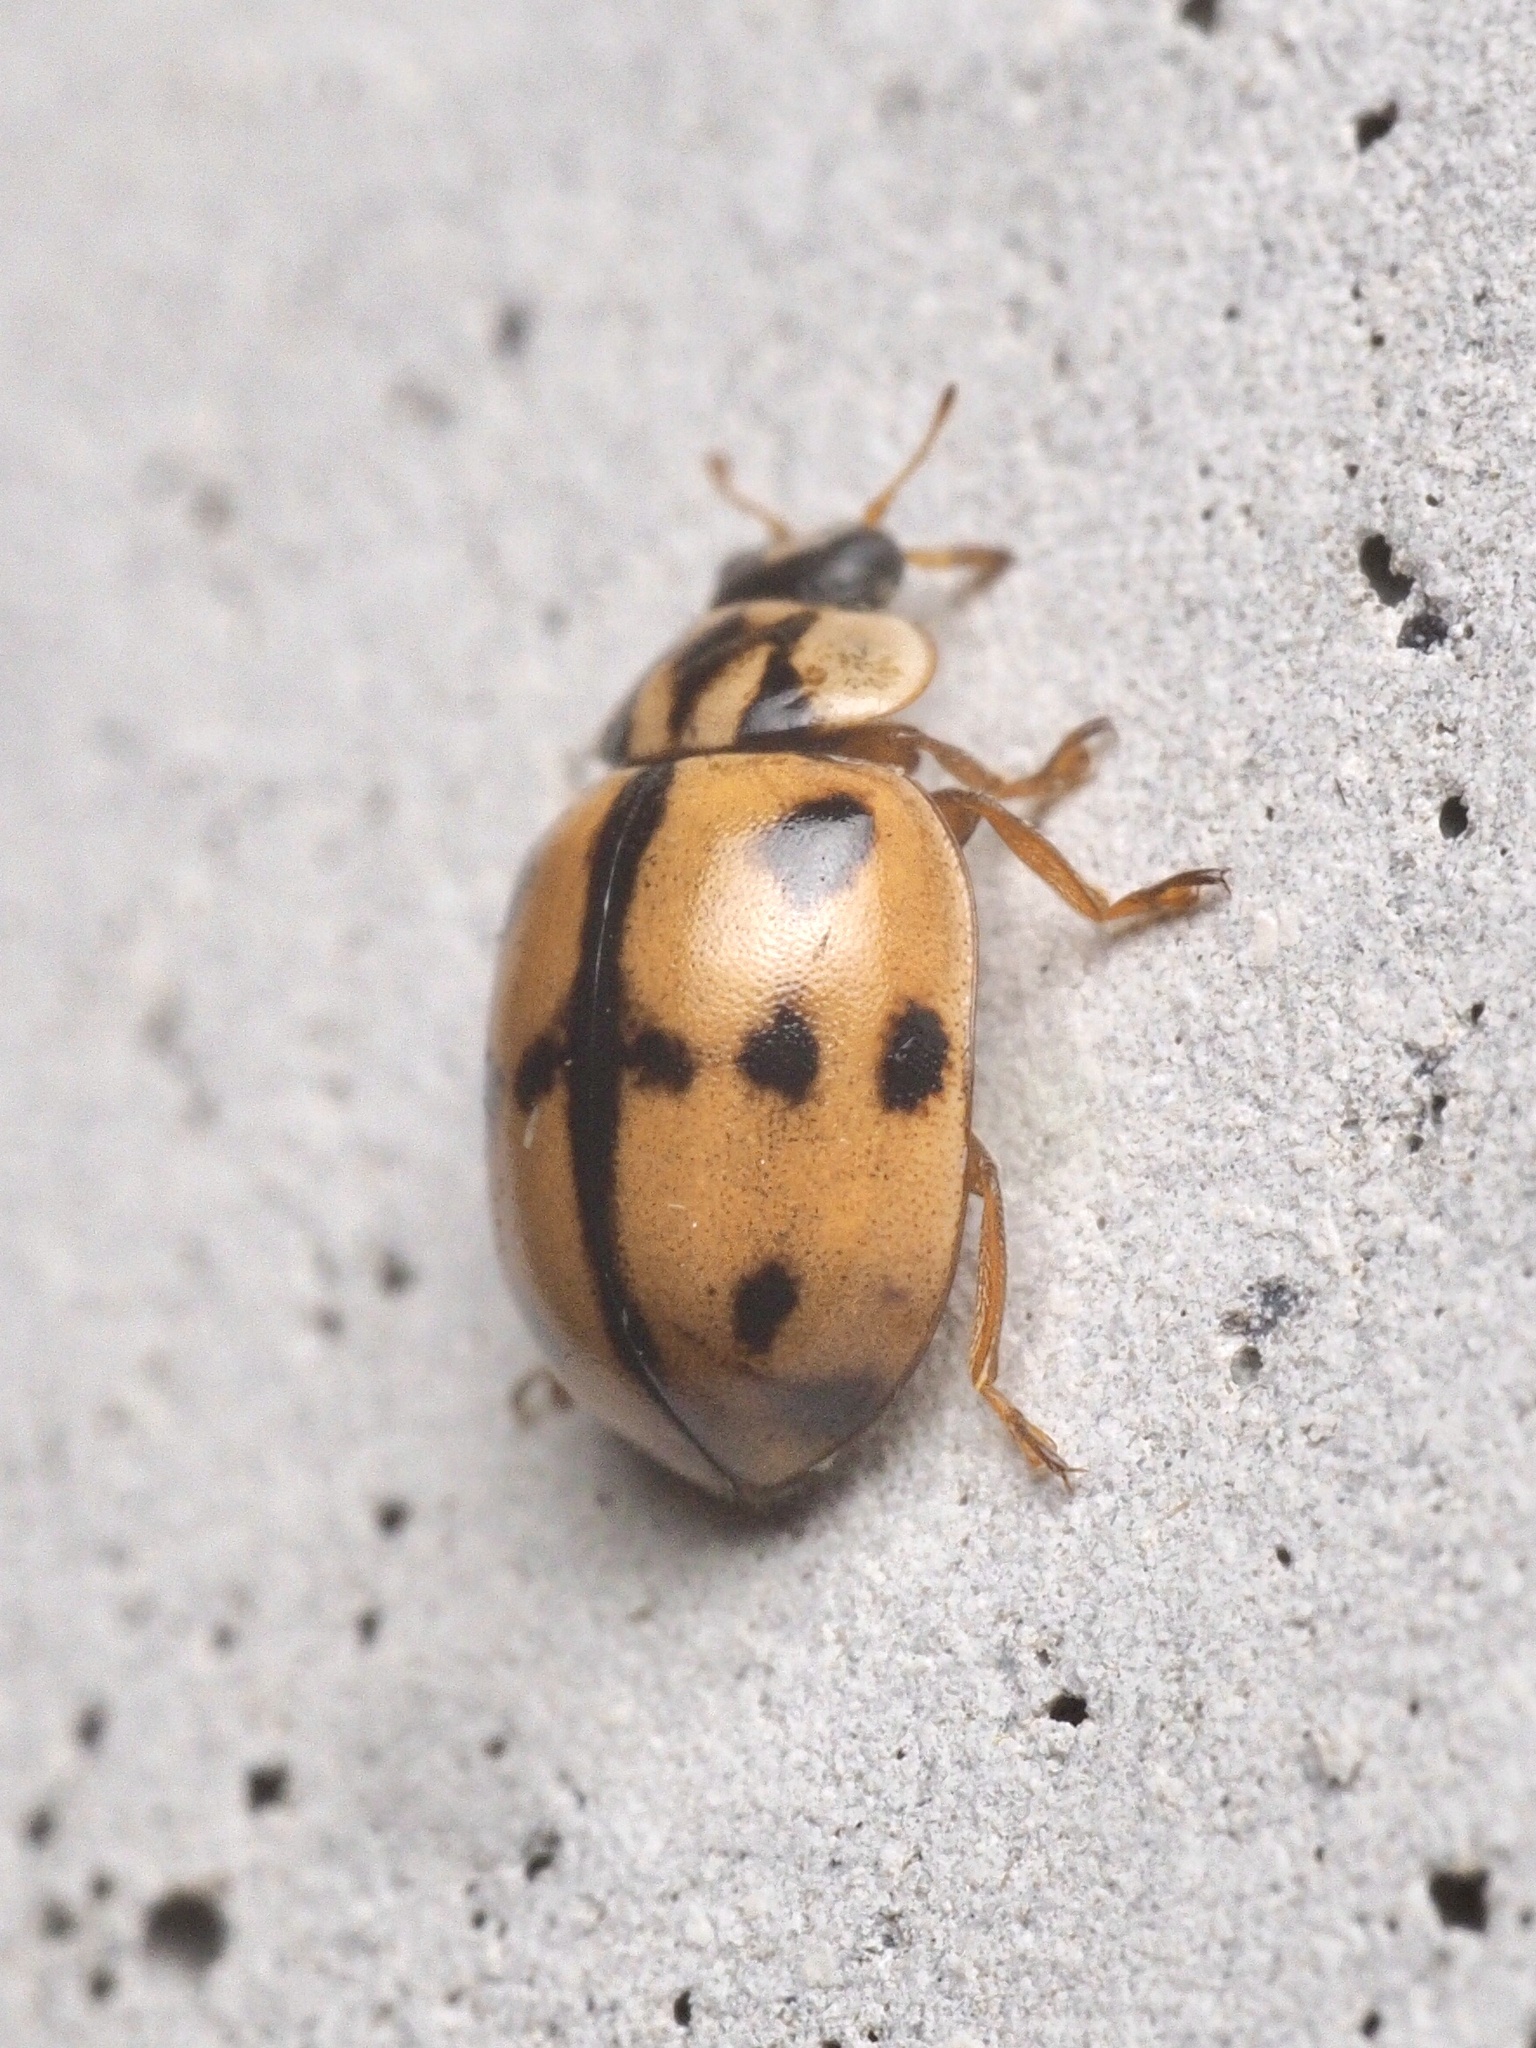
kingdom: Animalia
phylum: Arthropoda
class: Insecta
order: Coleoptera
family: Coccinellidae
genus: Adalia
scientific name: Adalia conglomerata
